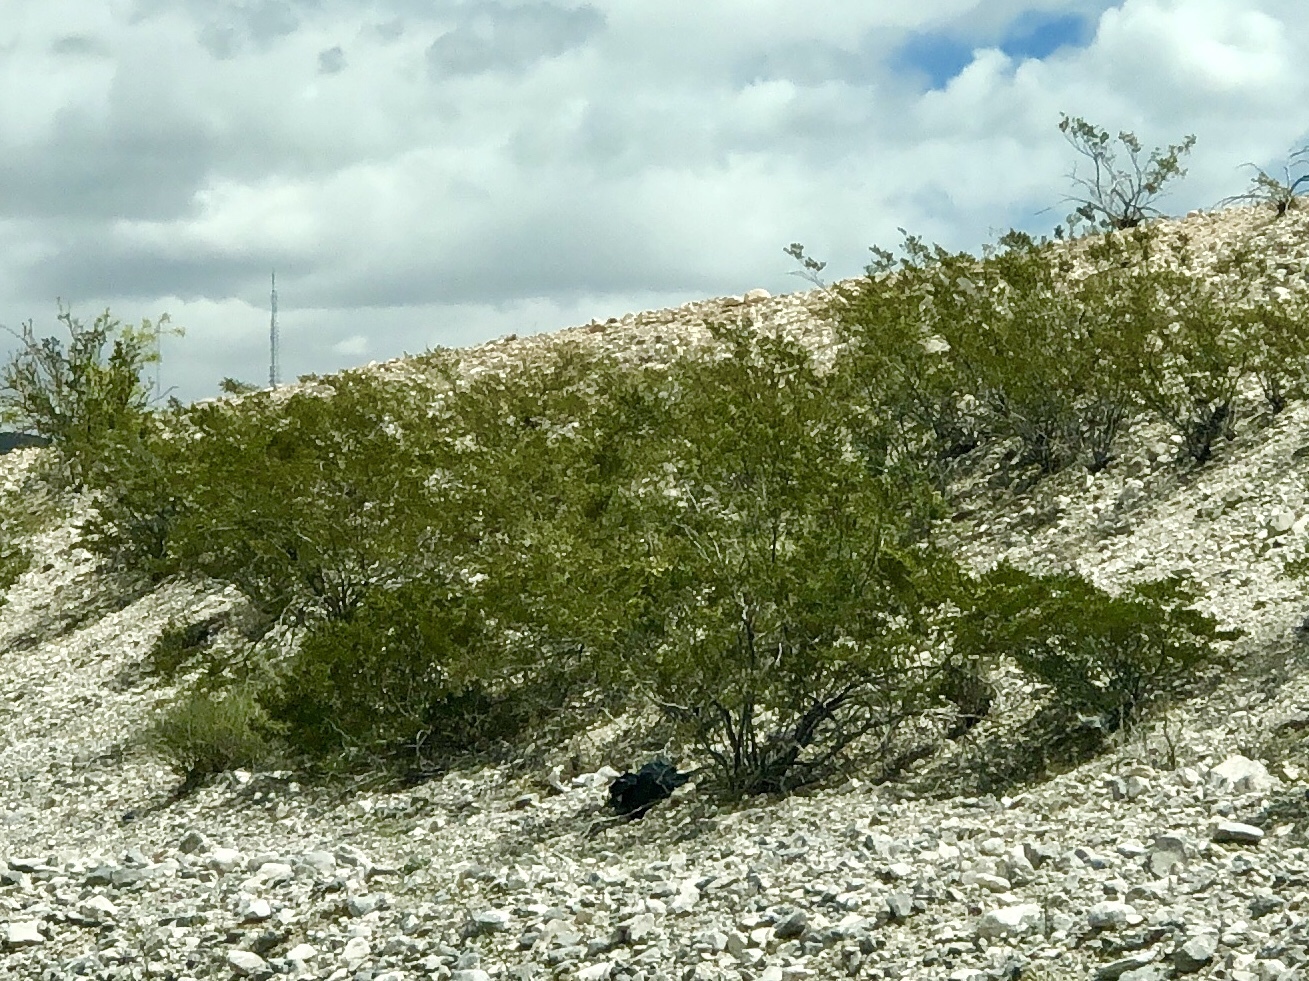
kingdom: Plantae
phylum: Tracheophyta
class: Magnoliopsida
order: Zygophyllales
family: Zygophyllaceae
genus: Larrea
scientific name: Larrea tridentata
